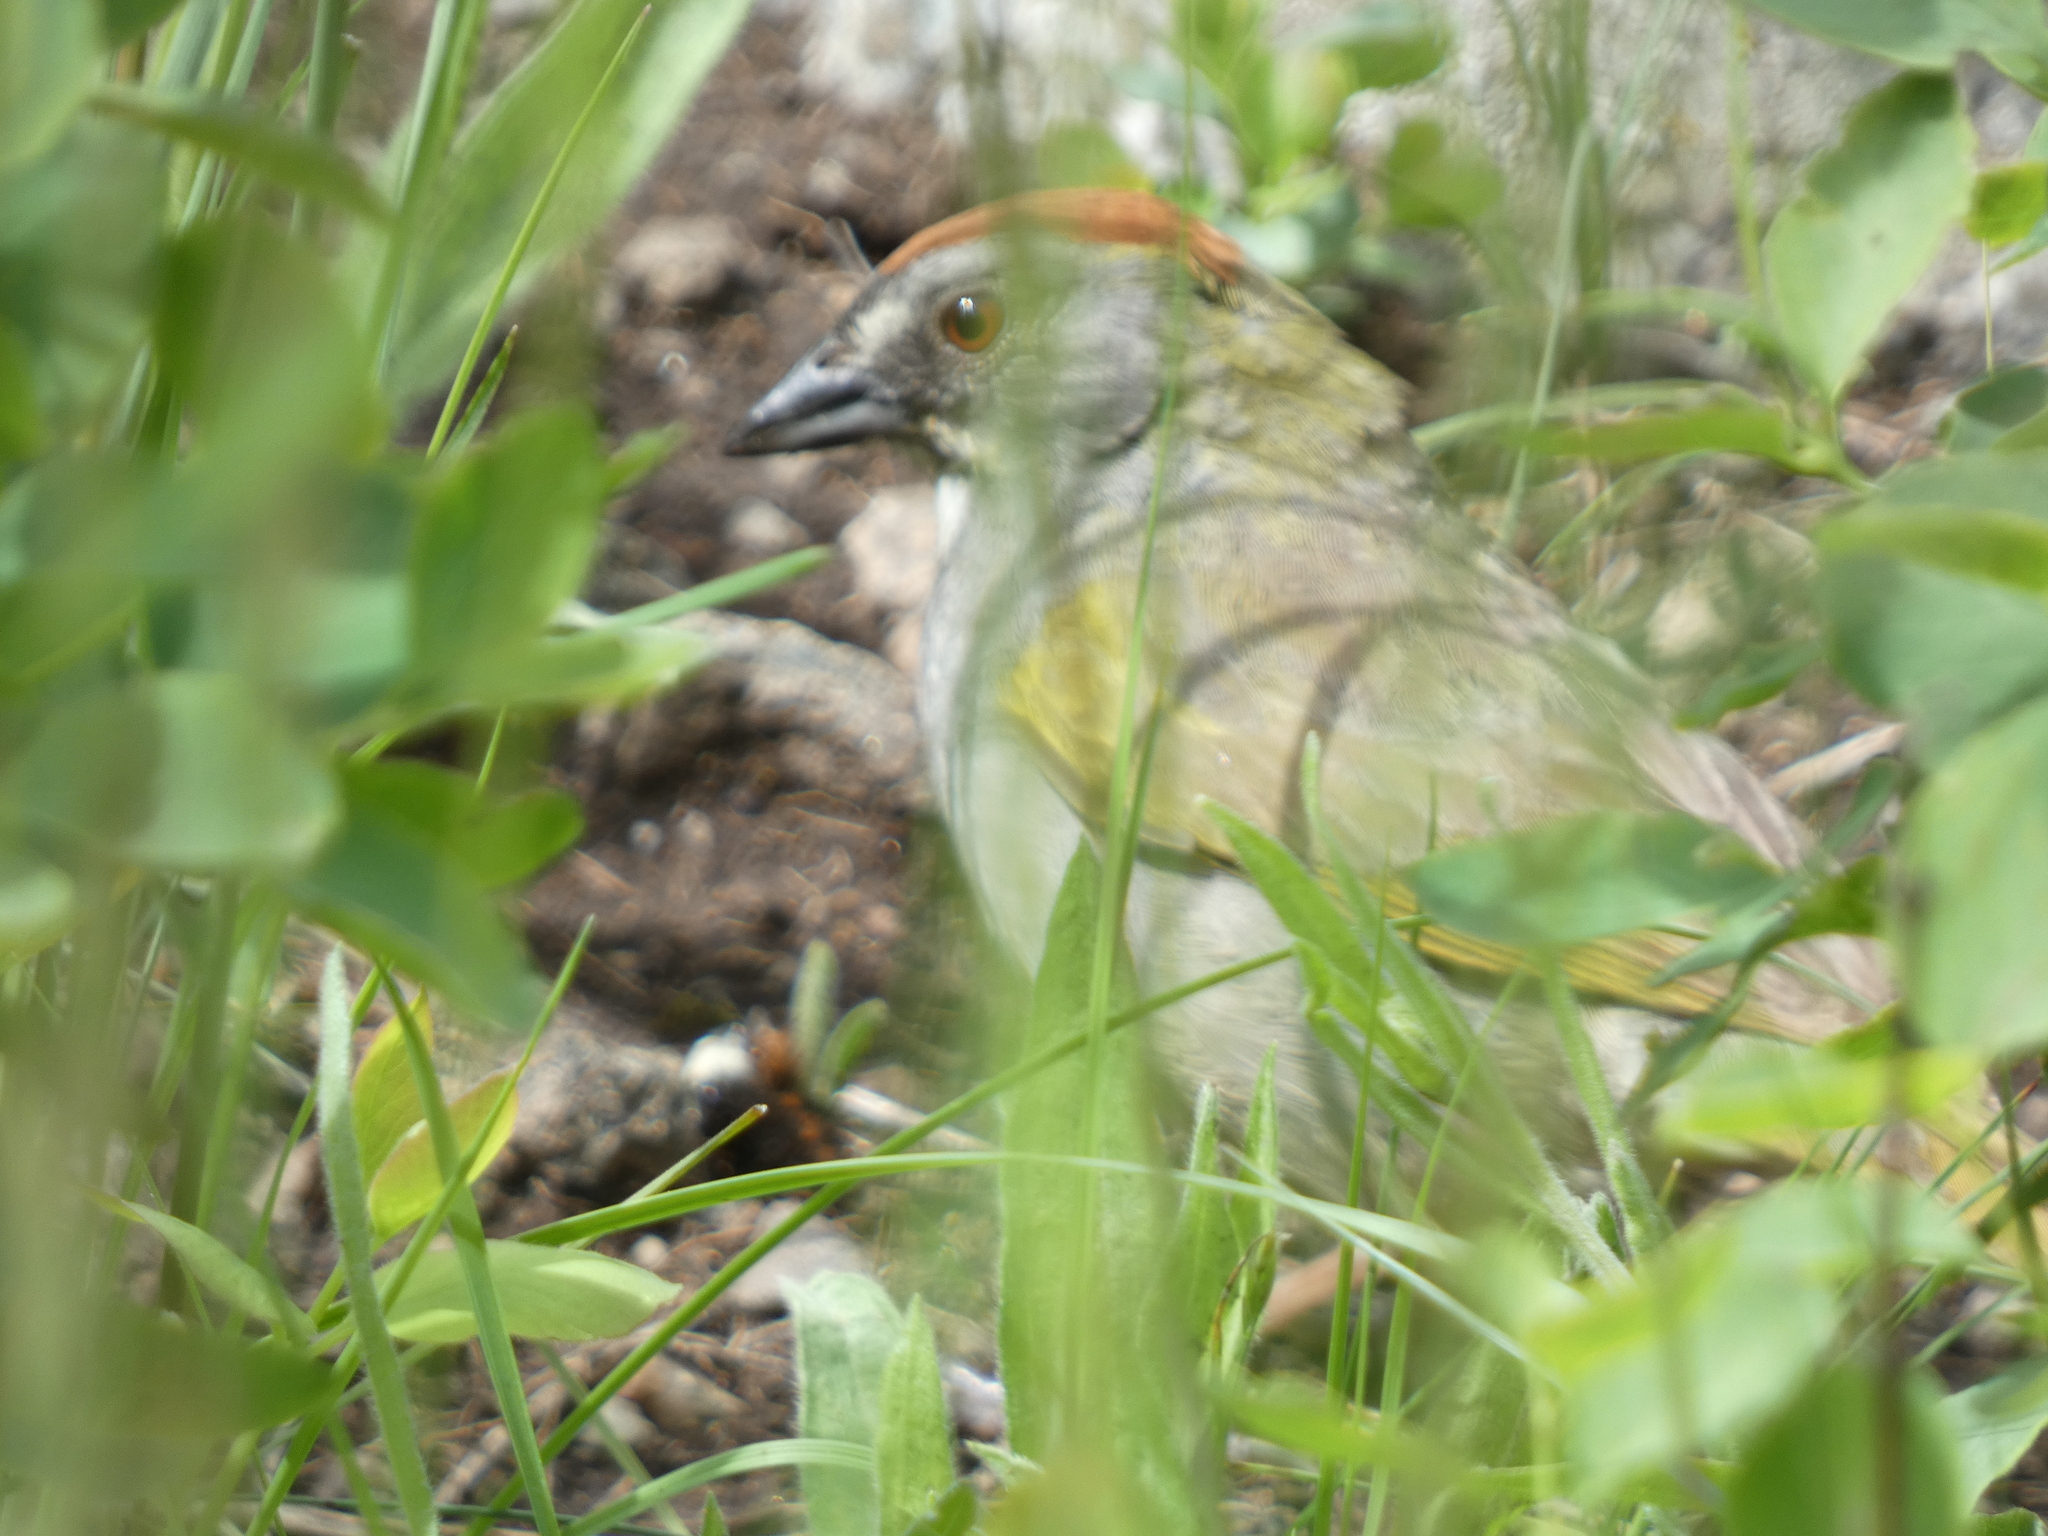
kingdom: Animalia
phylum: Chordata
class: Aves
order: Passeriformes
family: Passerellidae
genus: Pipilo
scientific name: Pipilo chlorurus
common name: Green-tailed towhee
